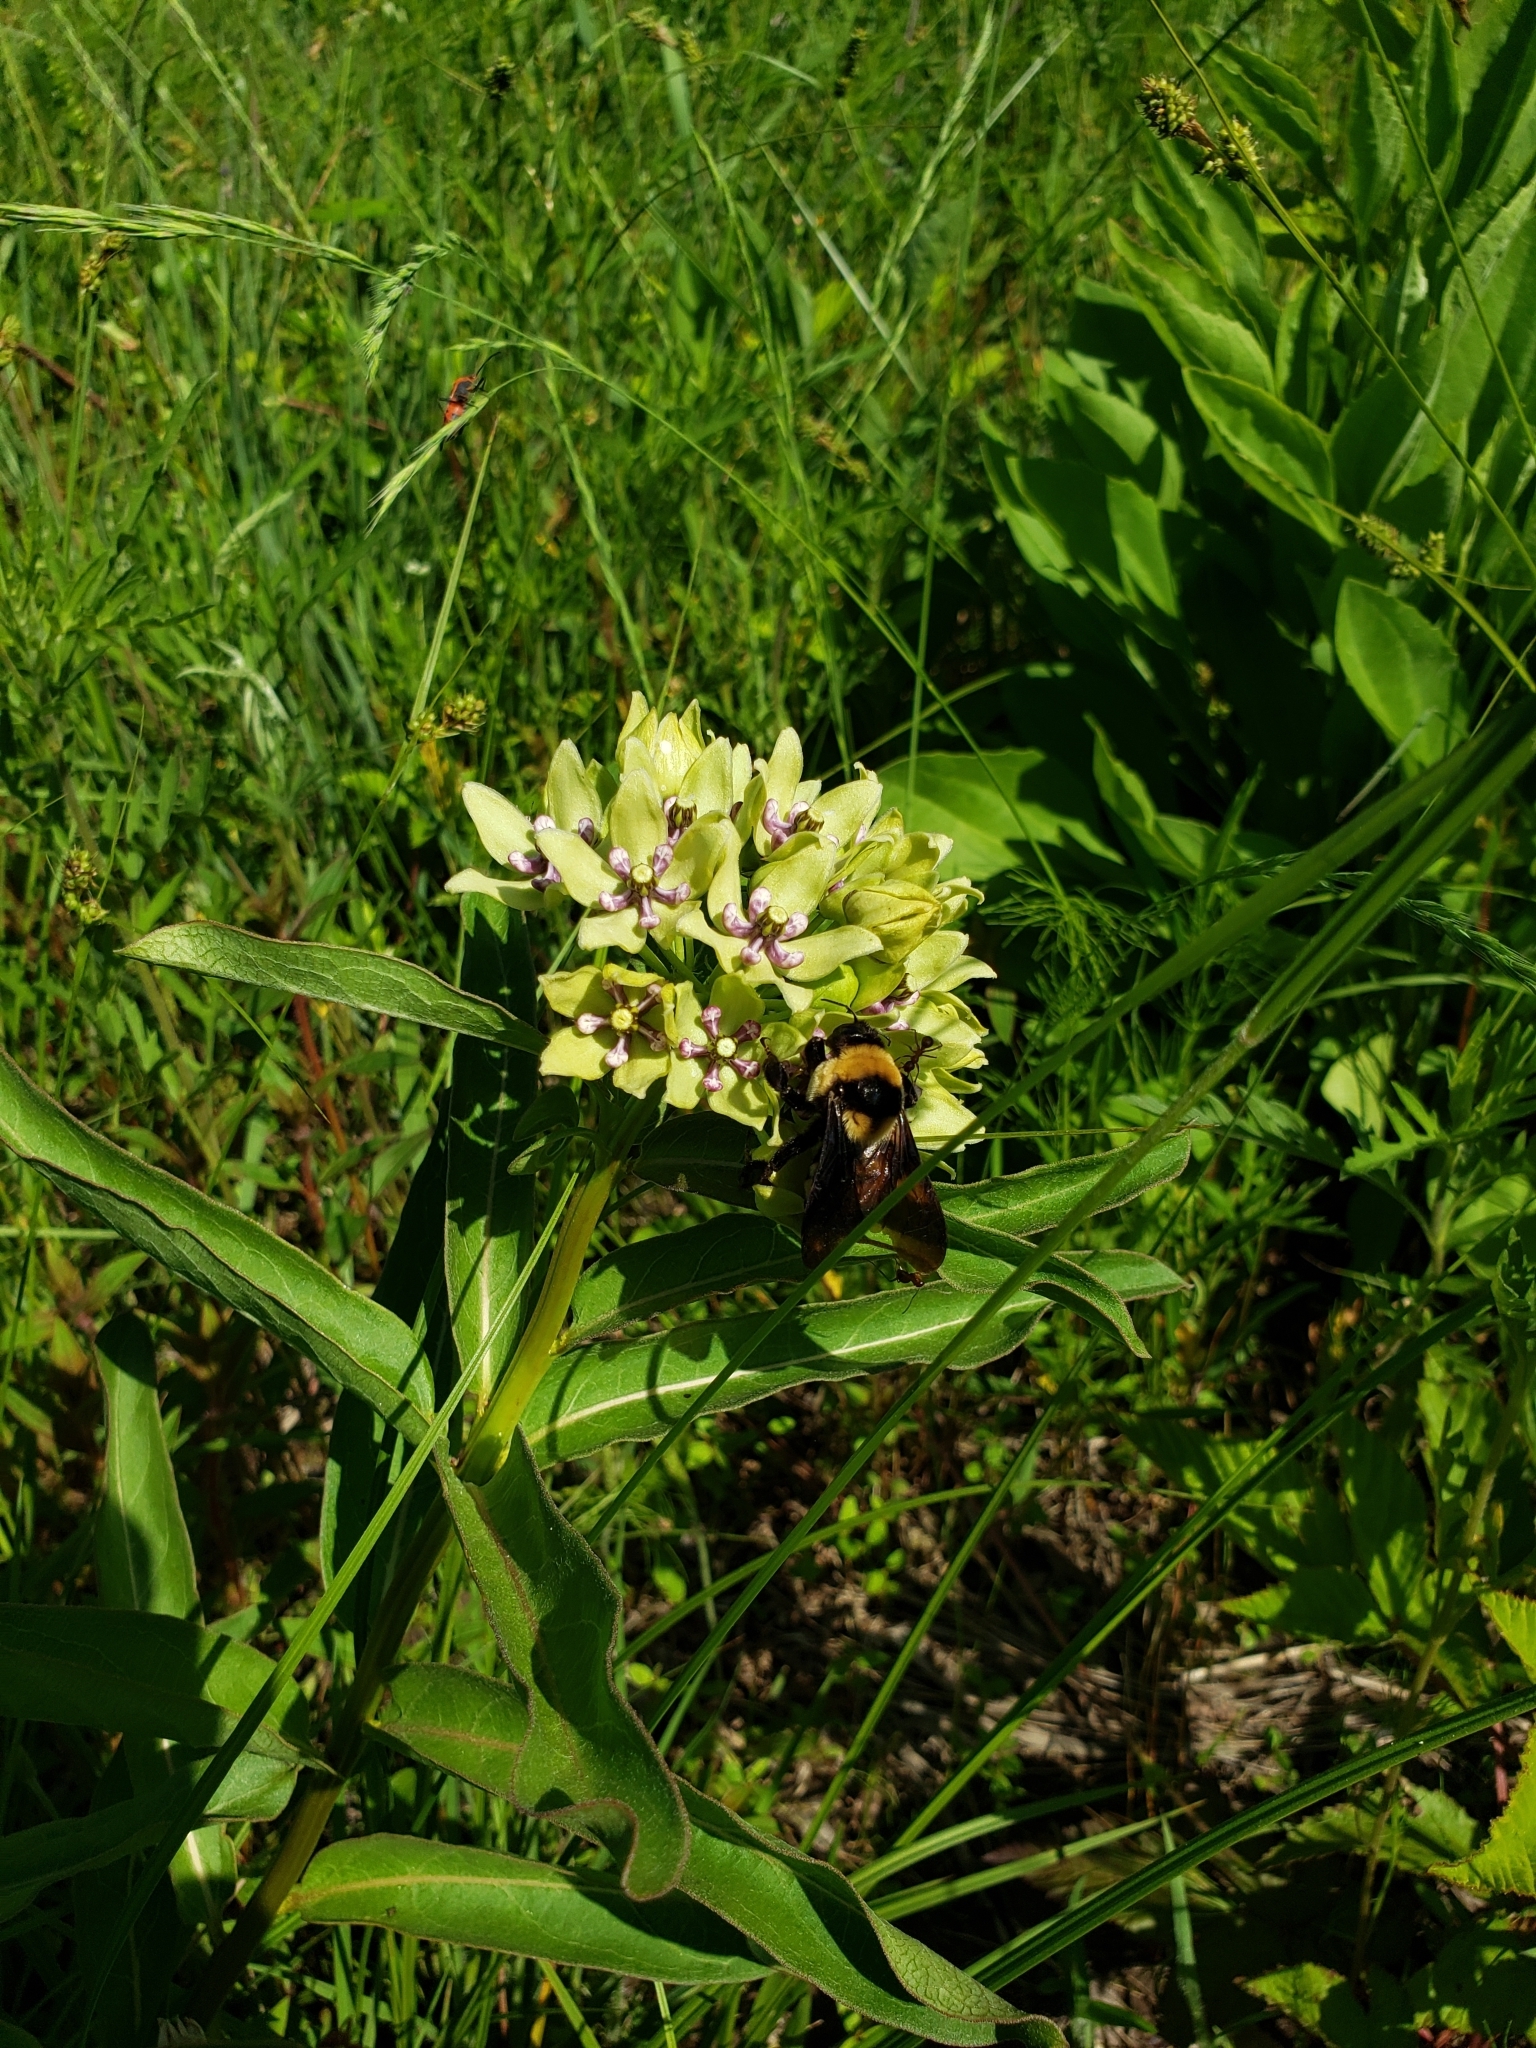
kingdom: Animalia
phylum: Arthropoda
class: Insecta
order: Hymenoptera
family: Apidae
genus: Bombus
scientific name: Bombus fraternus
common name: Southern plains bumble bee
